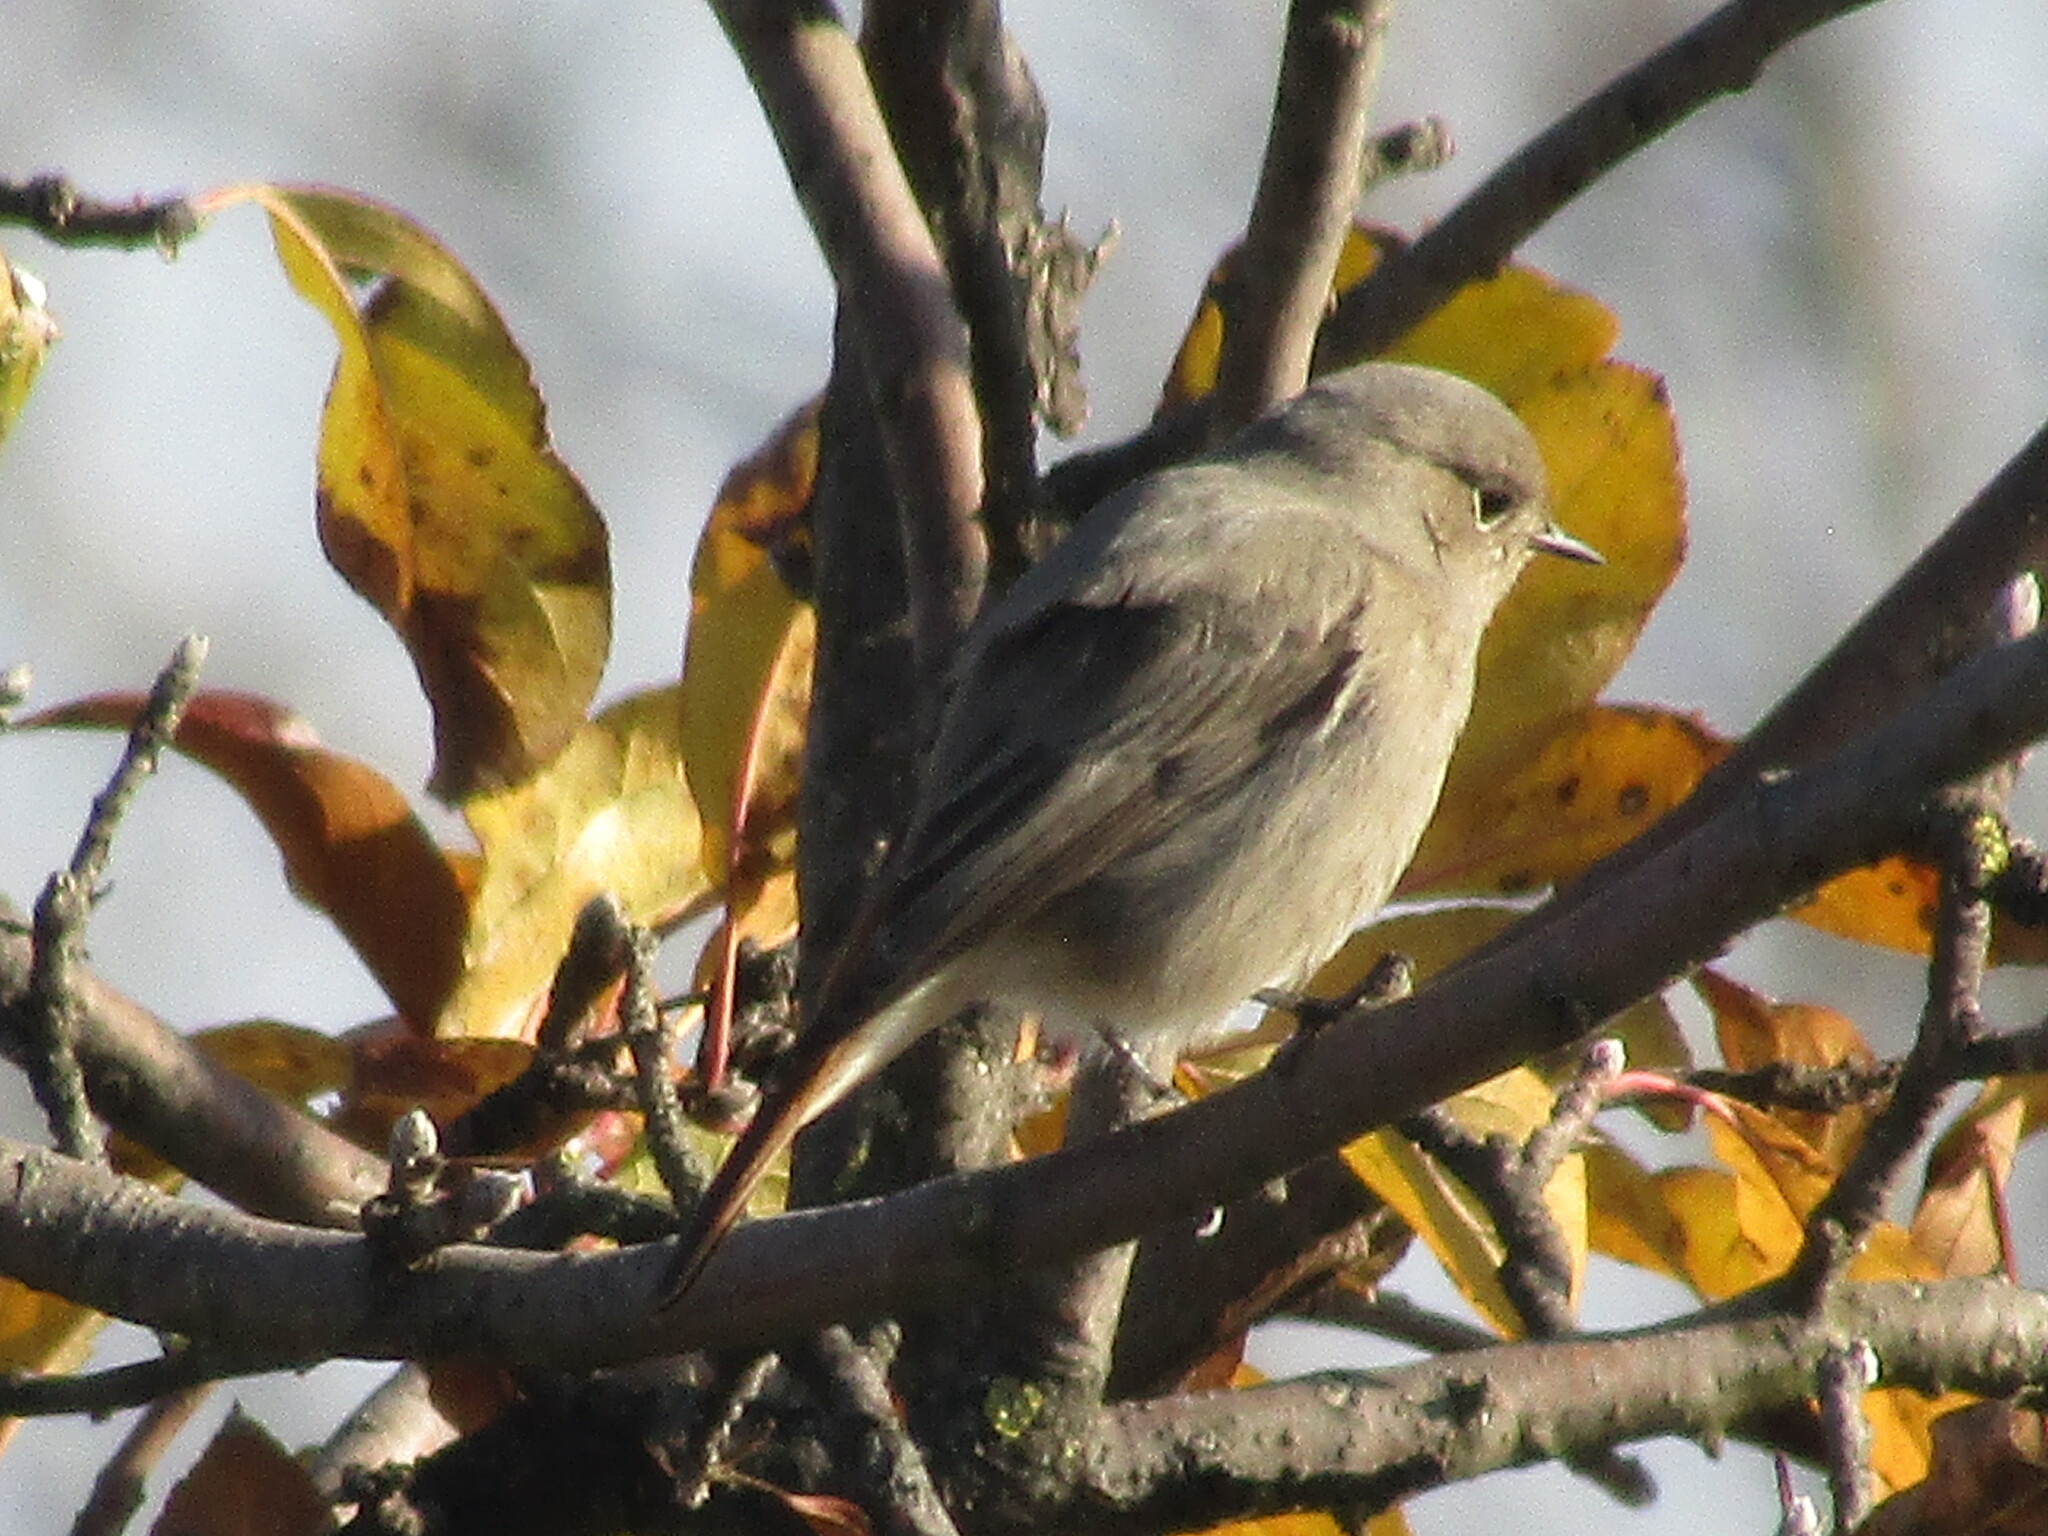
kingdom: Animalia
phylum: Chordata
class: Aves
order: Passeriformes
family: Muscicapidae
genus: Phoenicurus
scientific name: Phoenicurus ochruros
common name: Black redstart
